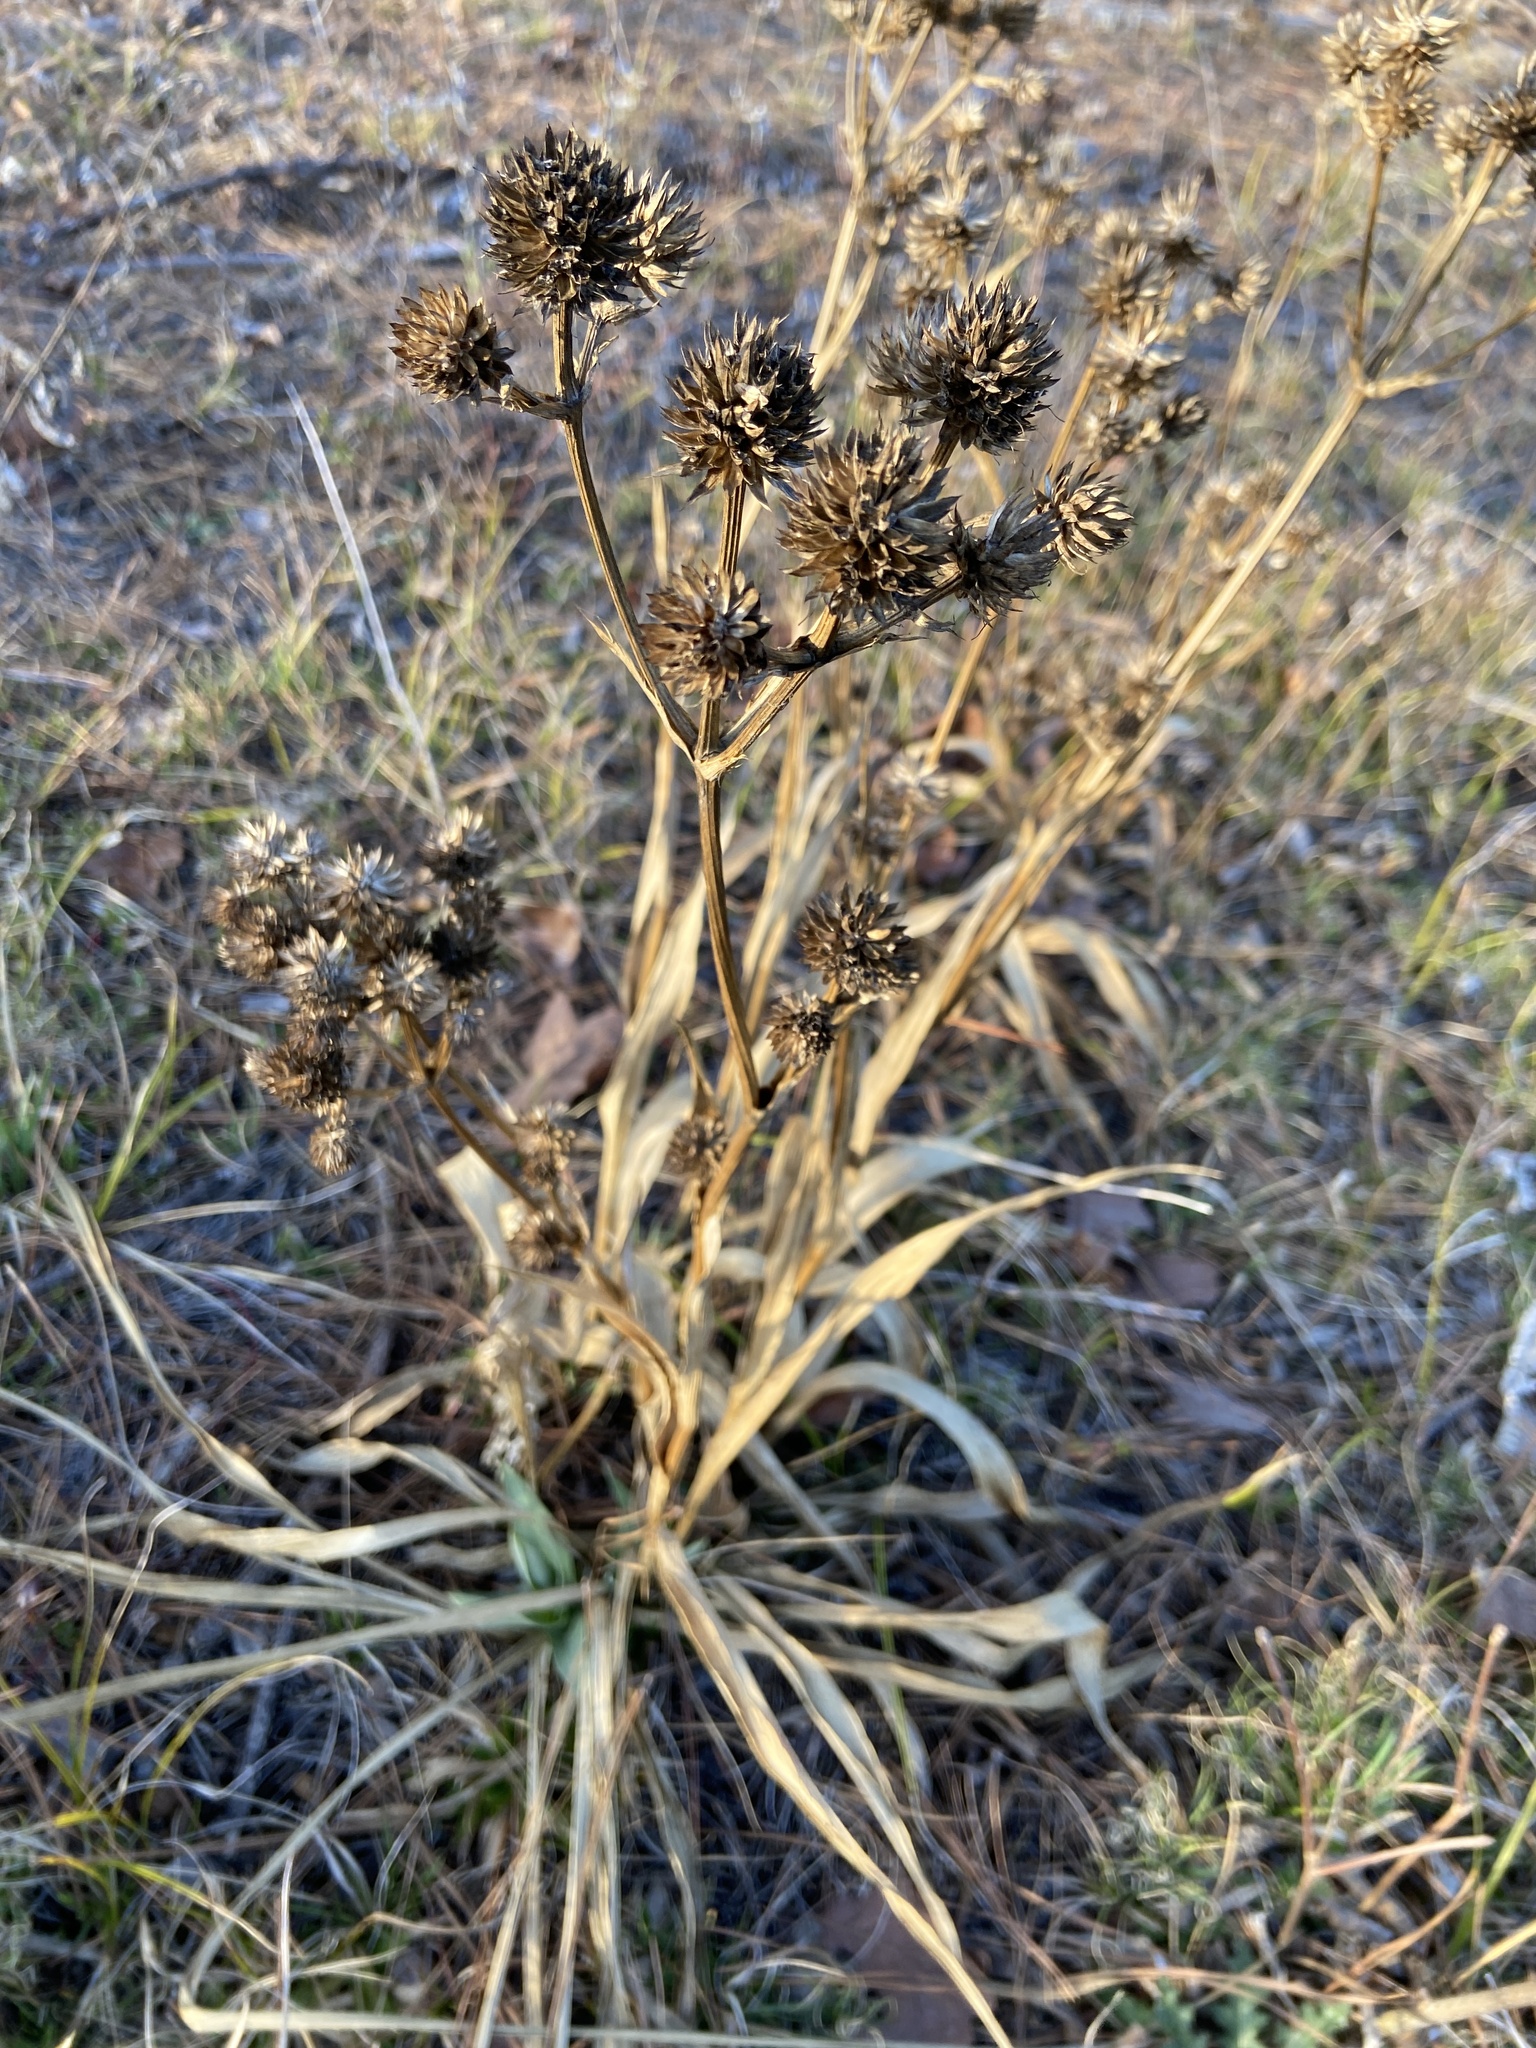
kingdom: Plantae
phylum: Tracheophyta
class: Magnoliopsida
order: Apiales
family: Apiaceae
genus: Eryngium
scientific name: Eryngium yuccifolium
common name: Button eryngo
